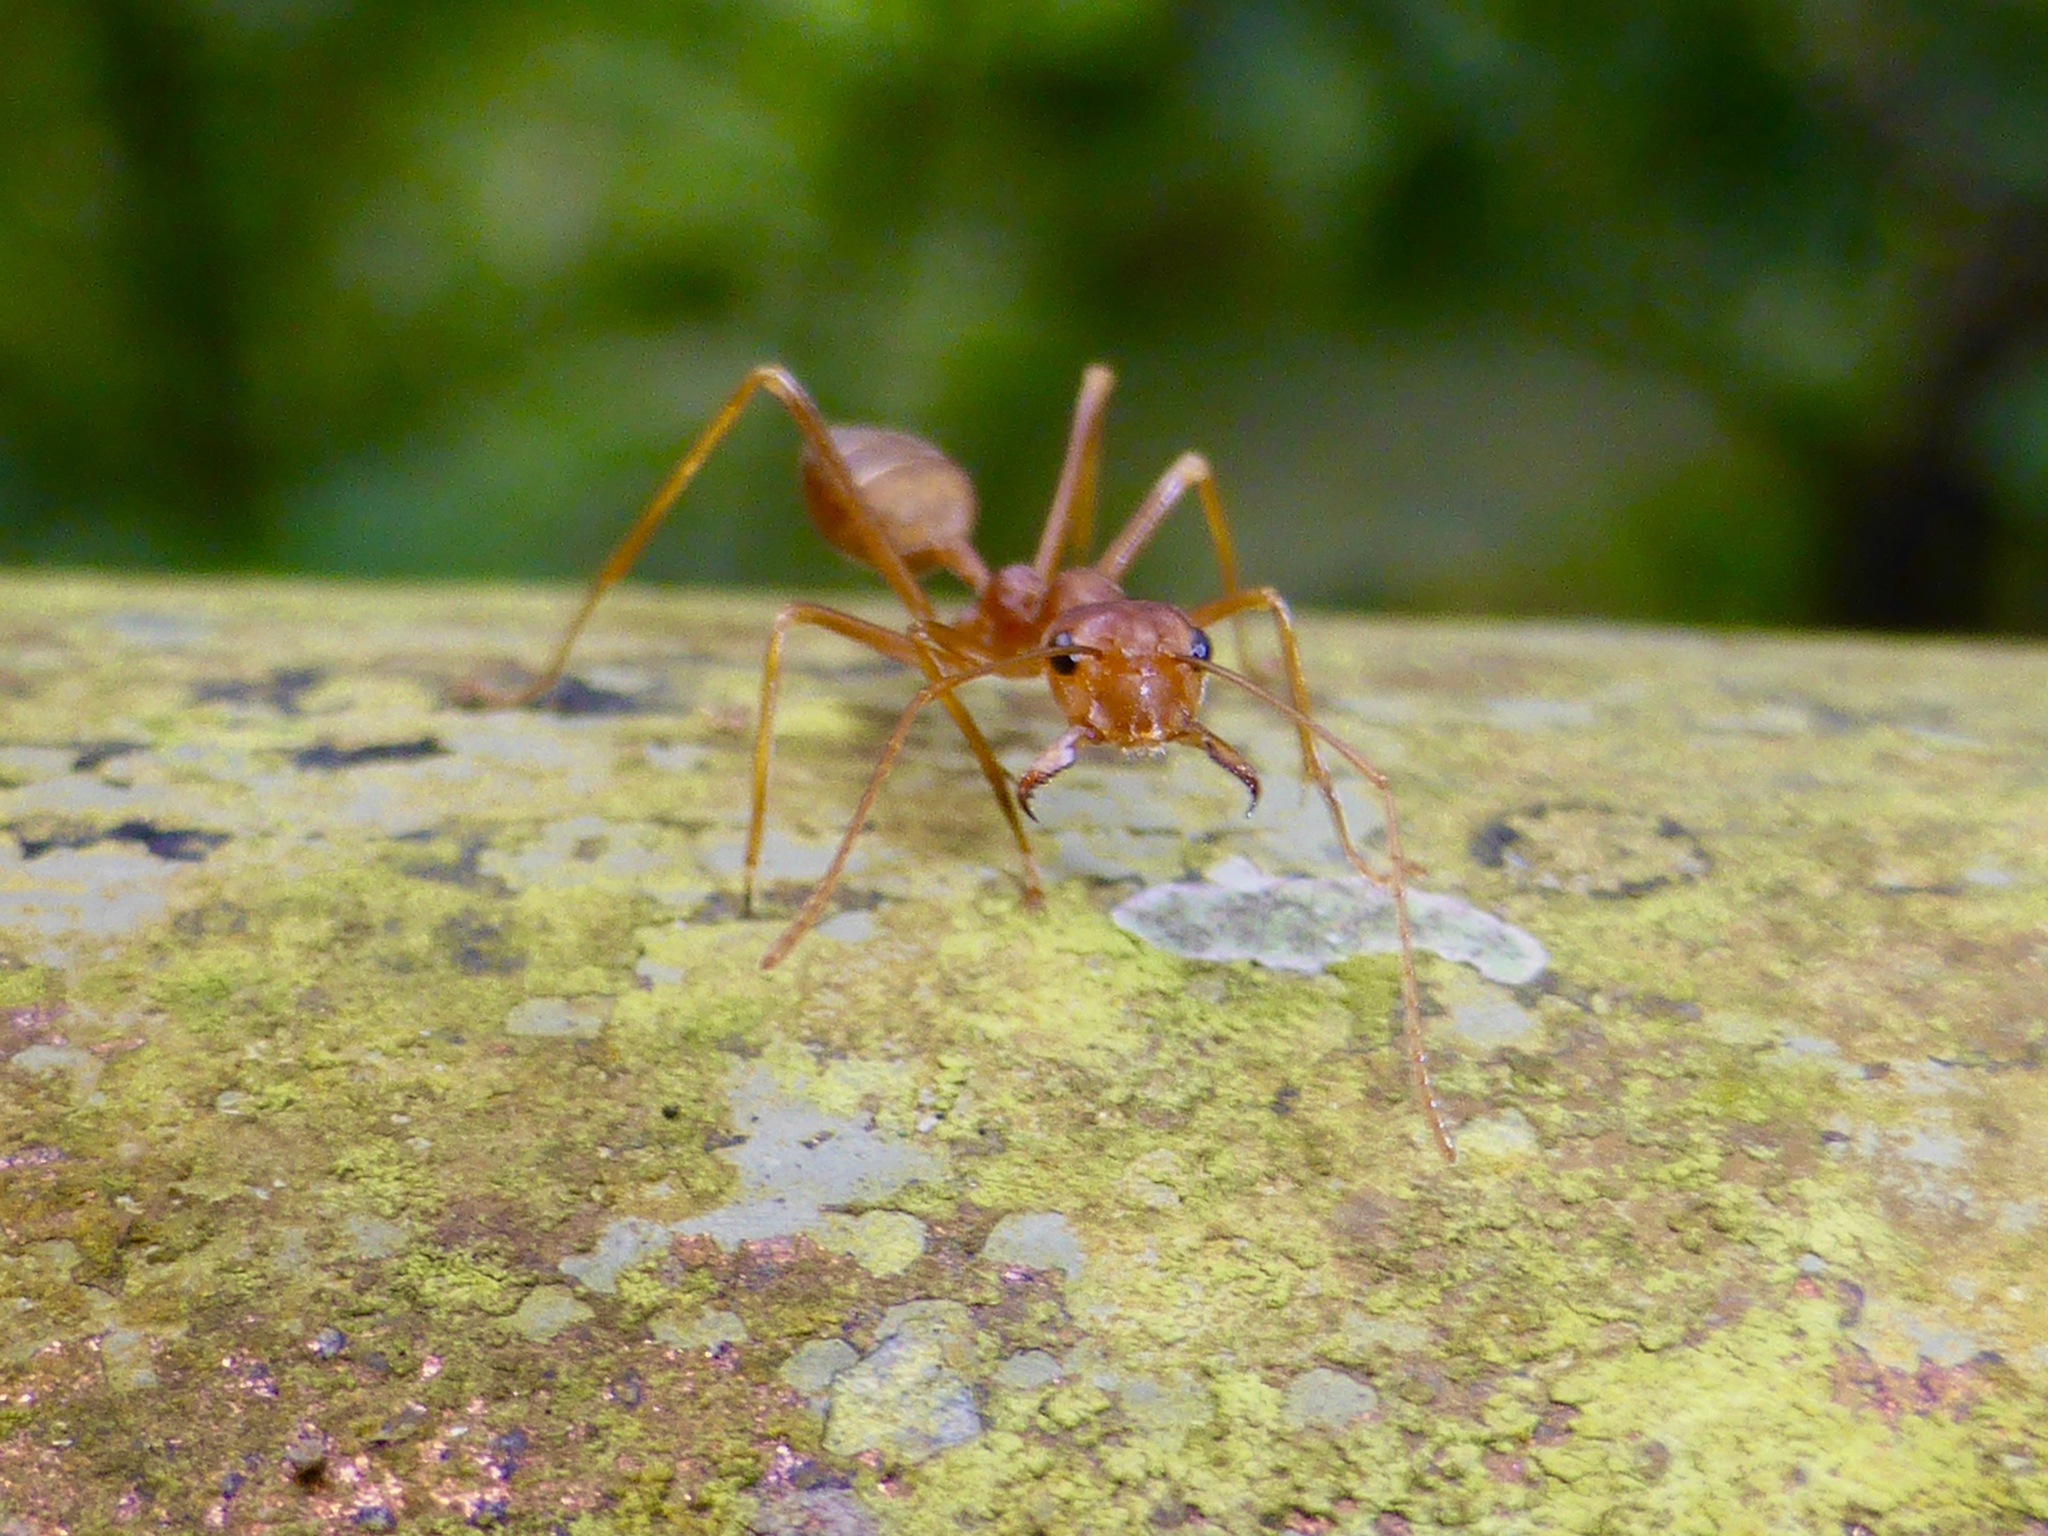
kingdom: Animalia
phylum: Arthropoda
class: Insecta
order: Hymenoptera
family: Formicidae
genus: Oecophylla
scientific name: Oecophylla smaragdina
